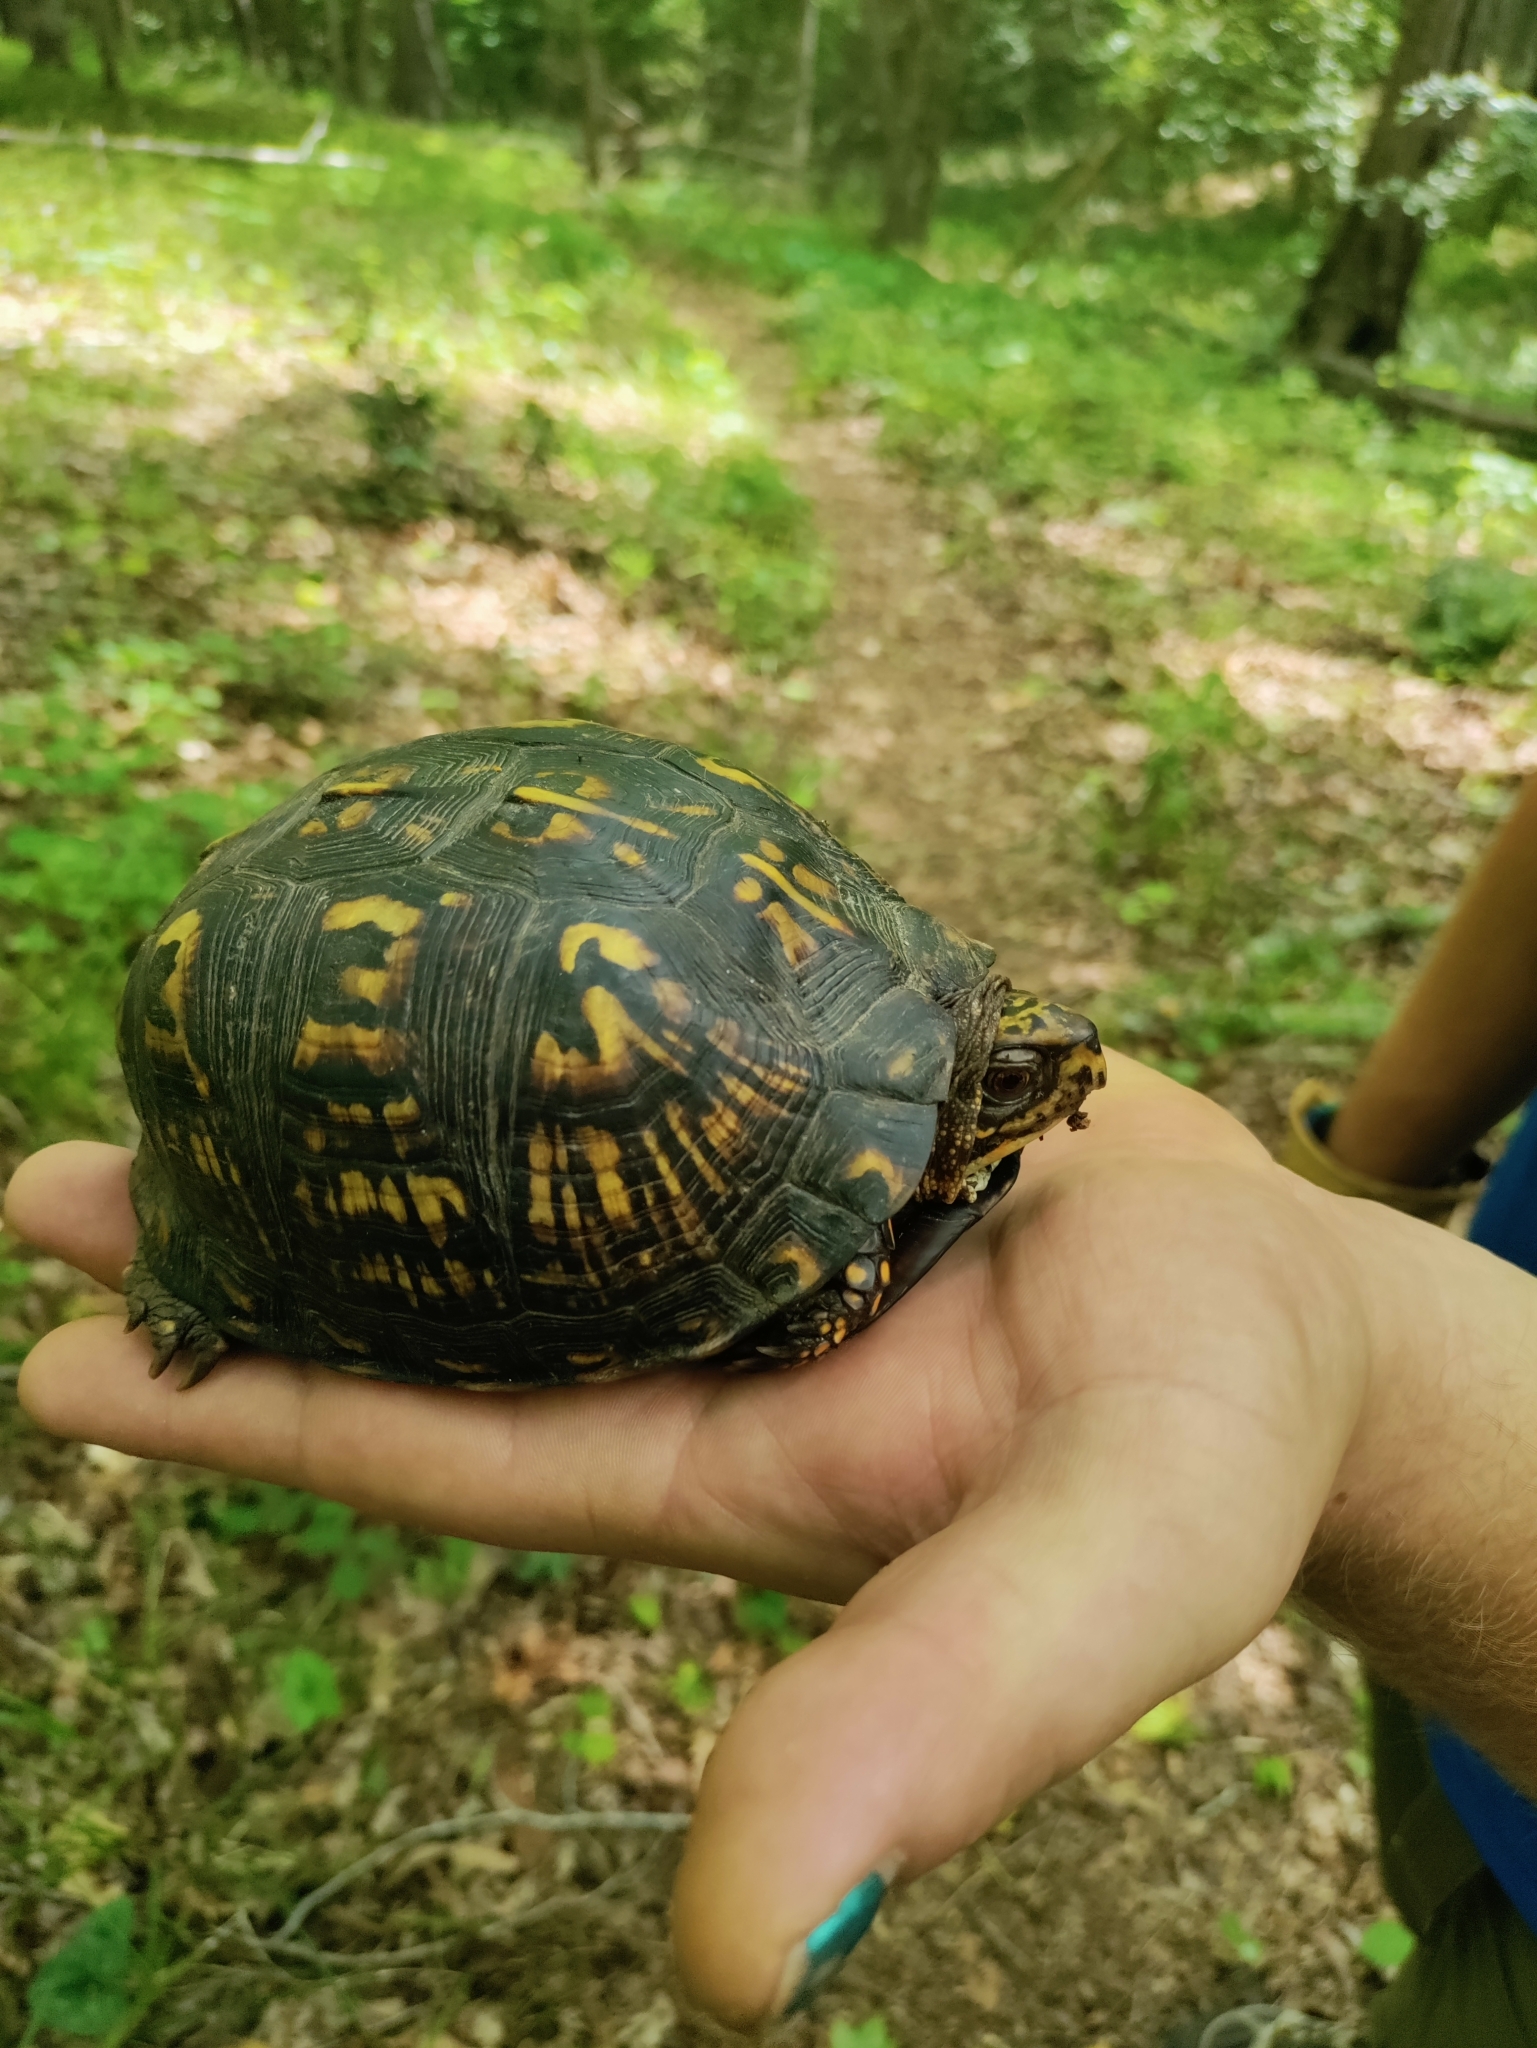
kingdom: Animalia
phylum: Chordata
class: Testudines
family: Emydidae
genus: Terrapene
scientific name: Terrapene carolina
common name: Common box turtle
